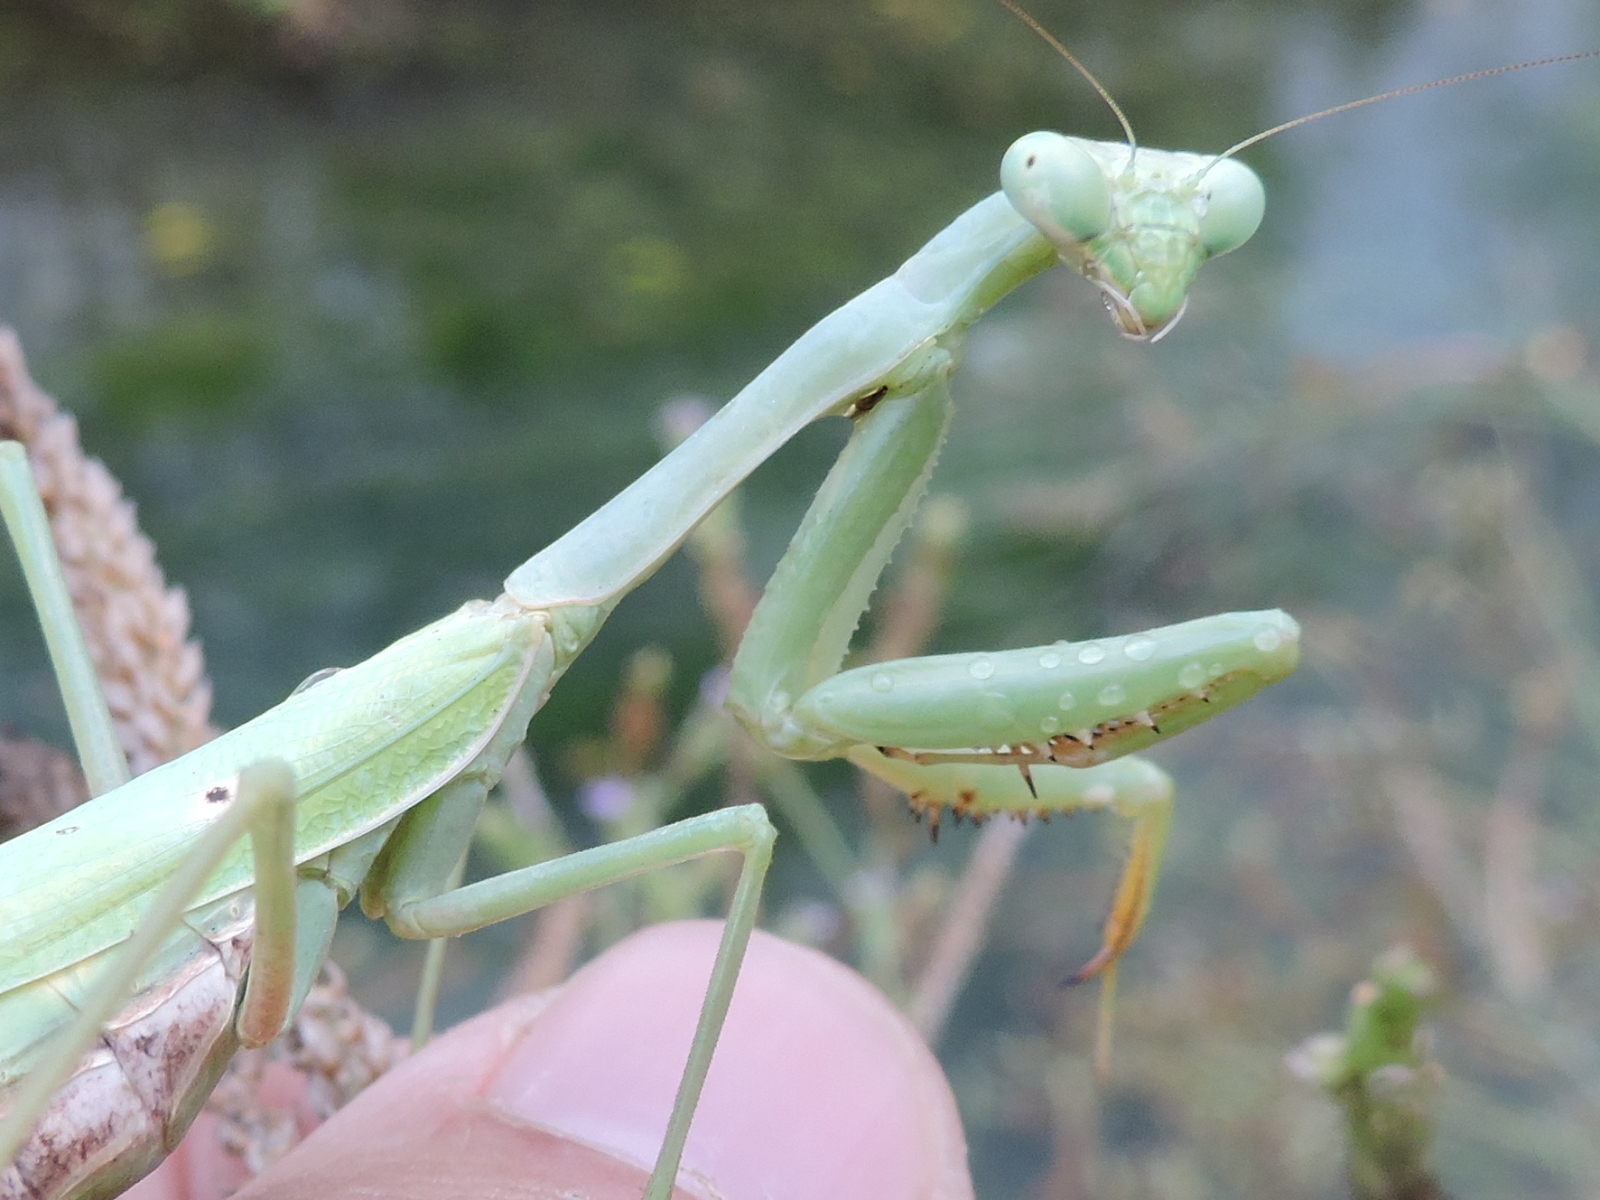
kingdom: Animalia
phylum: Arthropoda
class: Insecta
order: Mantodea
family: Mantidae
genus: Stagmomantis
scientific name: Stagmomantis carolina
